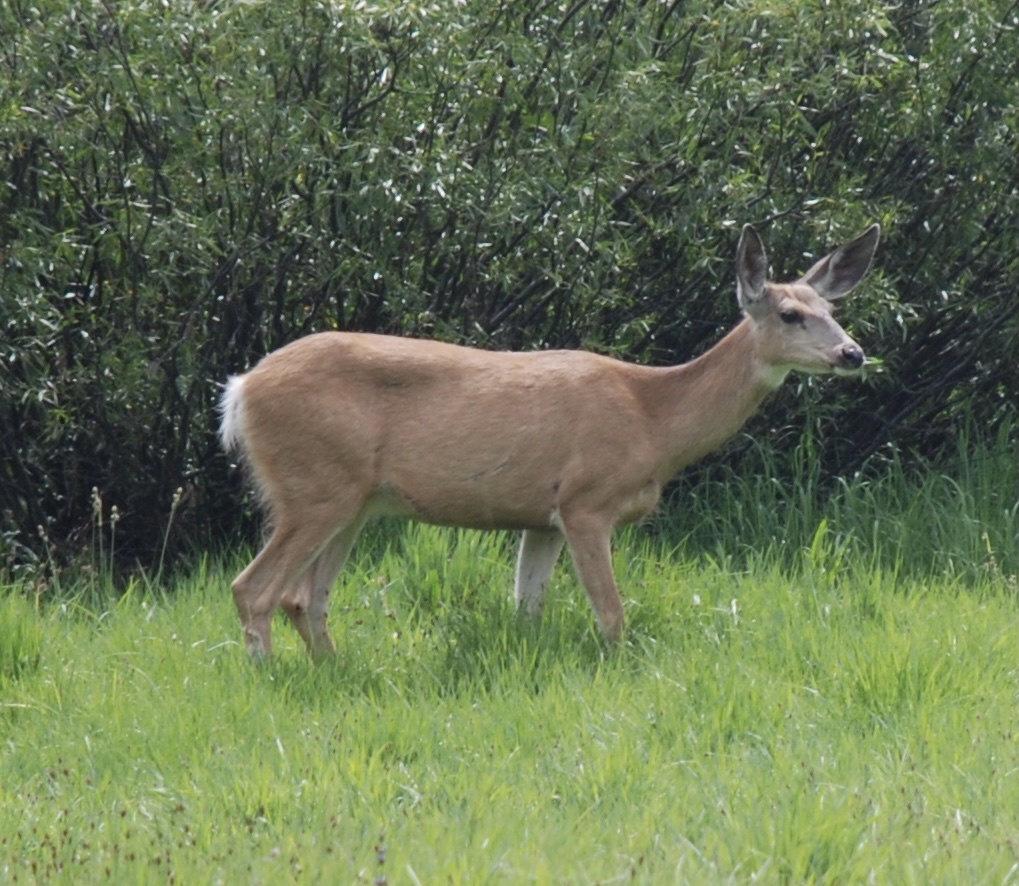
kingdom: Animalia
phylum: Chordata
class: Mammalia
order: Artiodactyla
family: Cervidae
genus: Odocoileus
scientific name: Odocoileus hemionus
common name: Mule deer
